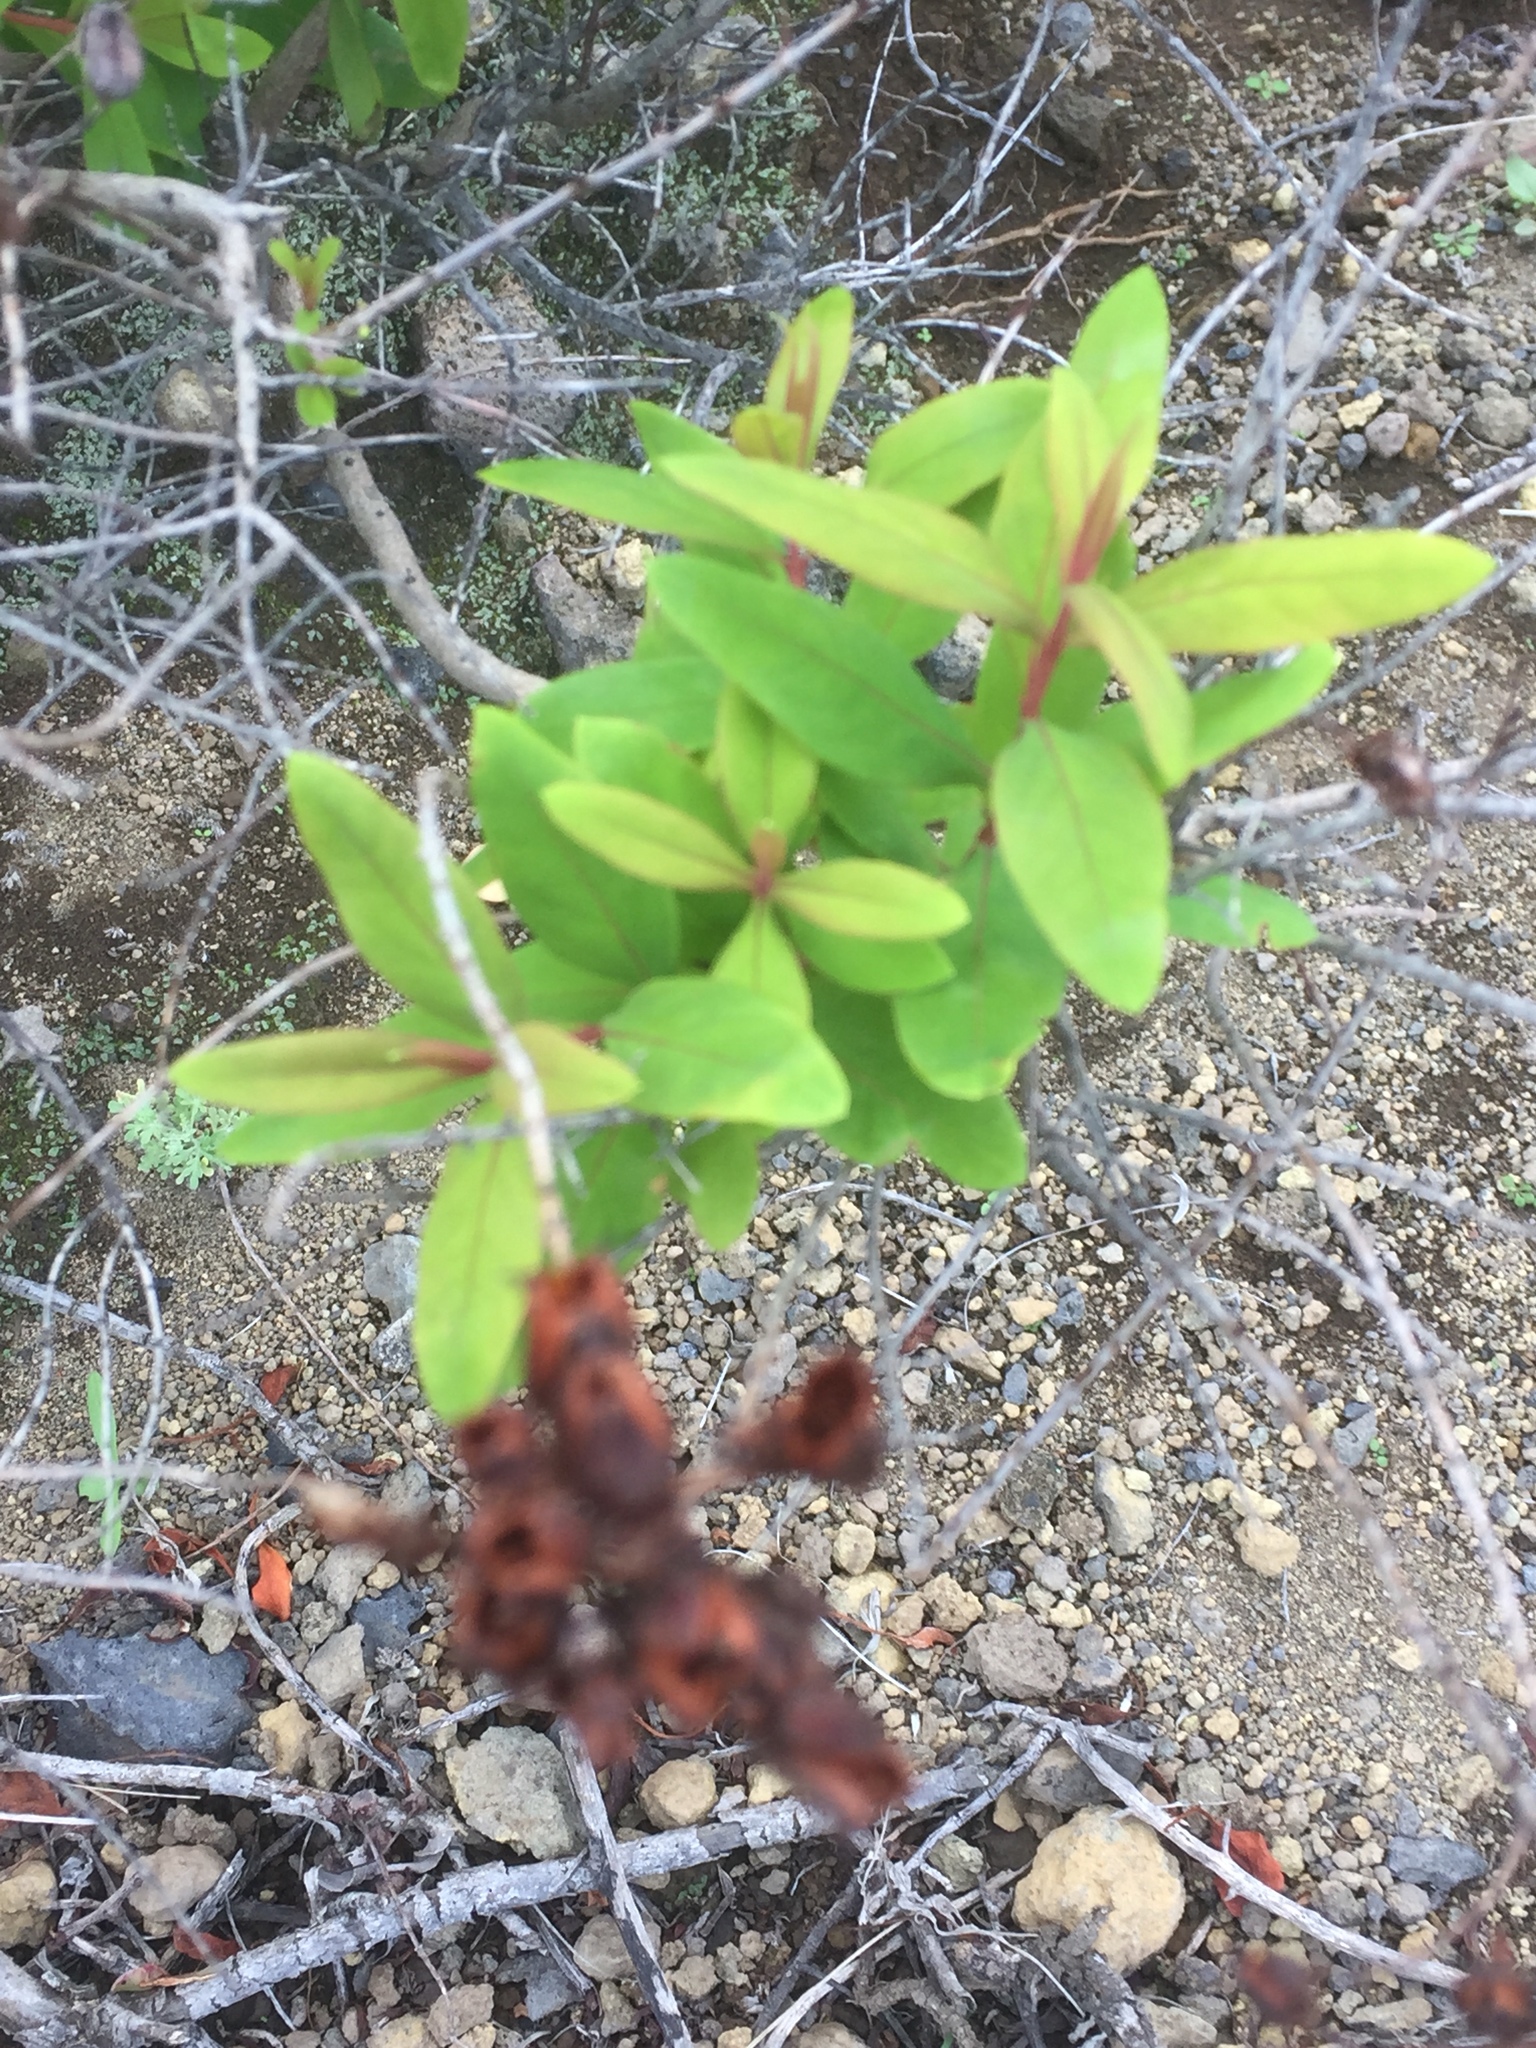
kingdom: Plantae
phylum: Tracheophyta
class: Magnoliopsida
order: Malpighiales
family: Hypericaceae
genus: Hypericum
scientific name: Hypericum canariense
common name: Canary island st. johnswort
